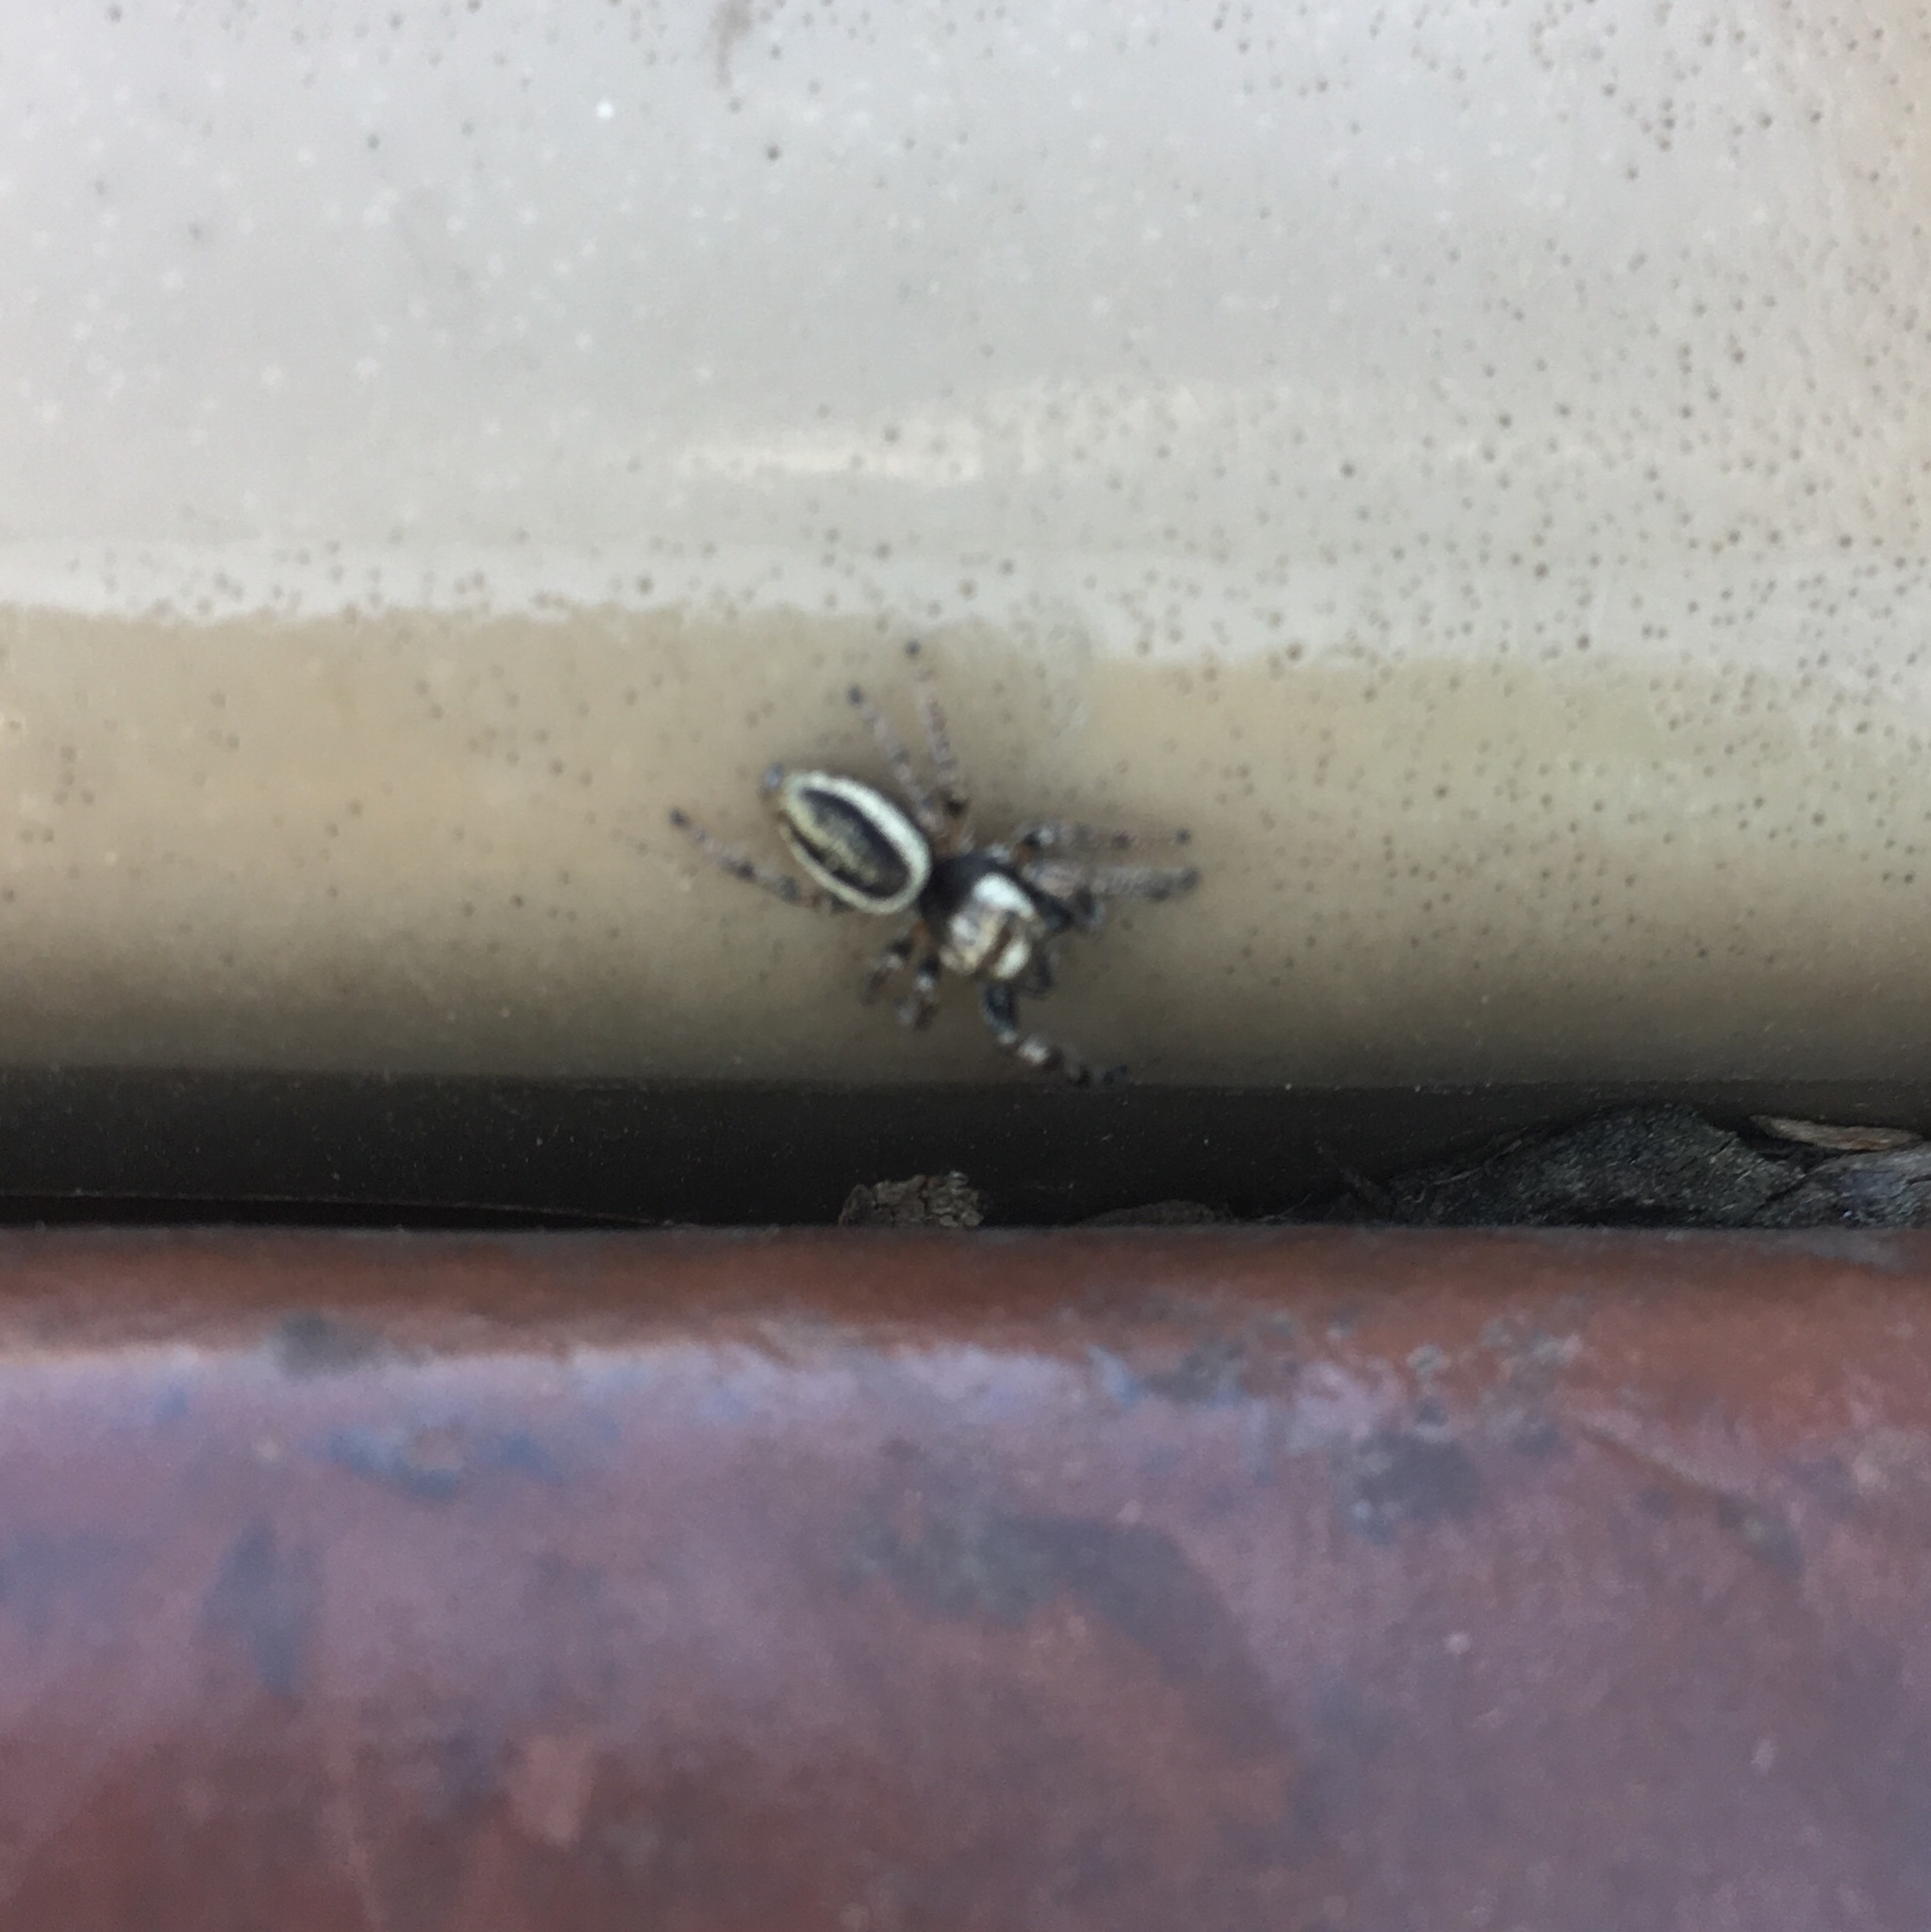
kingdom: Animalia
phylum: Arthropoda
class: Arachnida
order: Araneae
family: Salticidae
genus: Eris
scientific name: Eris militaris
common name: Bronze jumper
